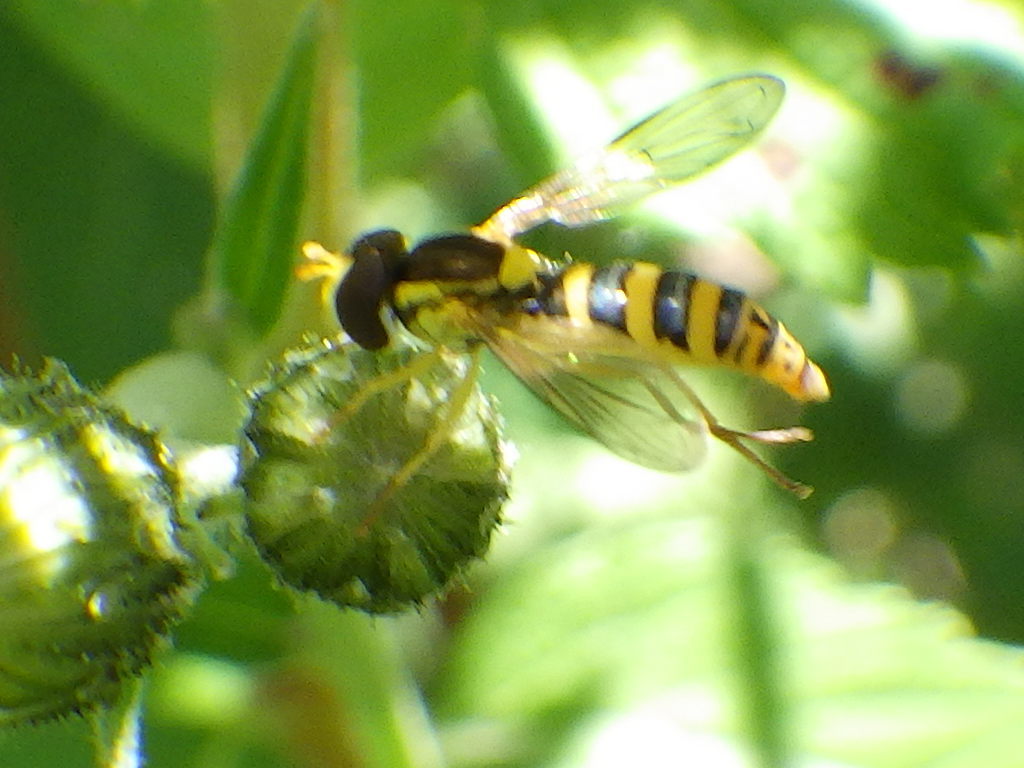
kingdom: Animalia
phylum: Arthropoda
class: Insecta
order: Diptera
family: Syrphidae
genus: Sphaerophoria
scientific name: Sphaerophoria
